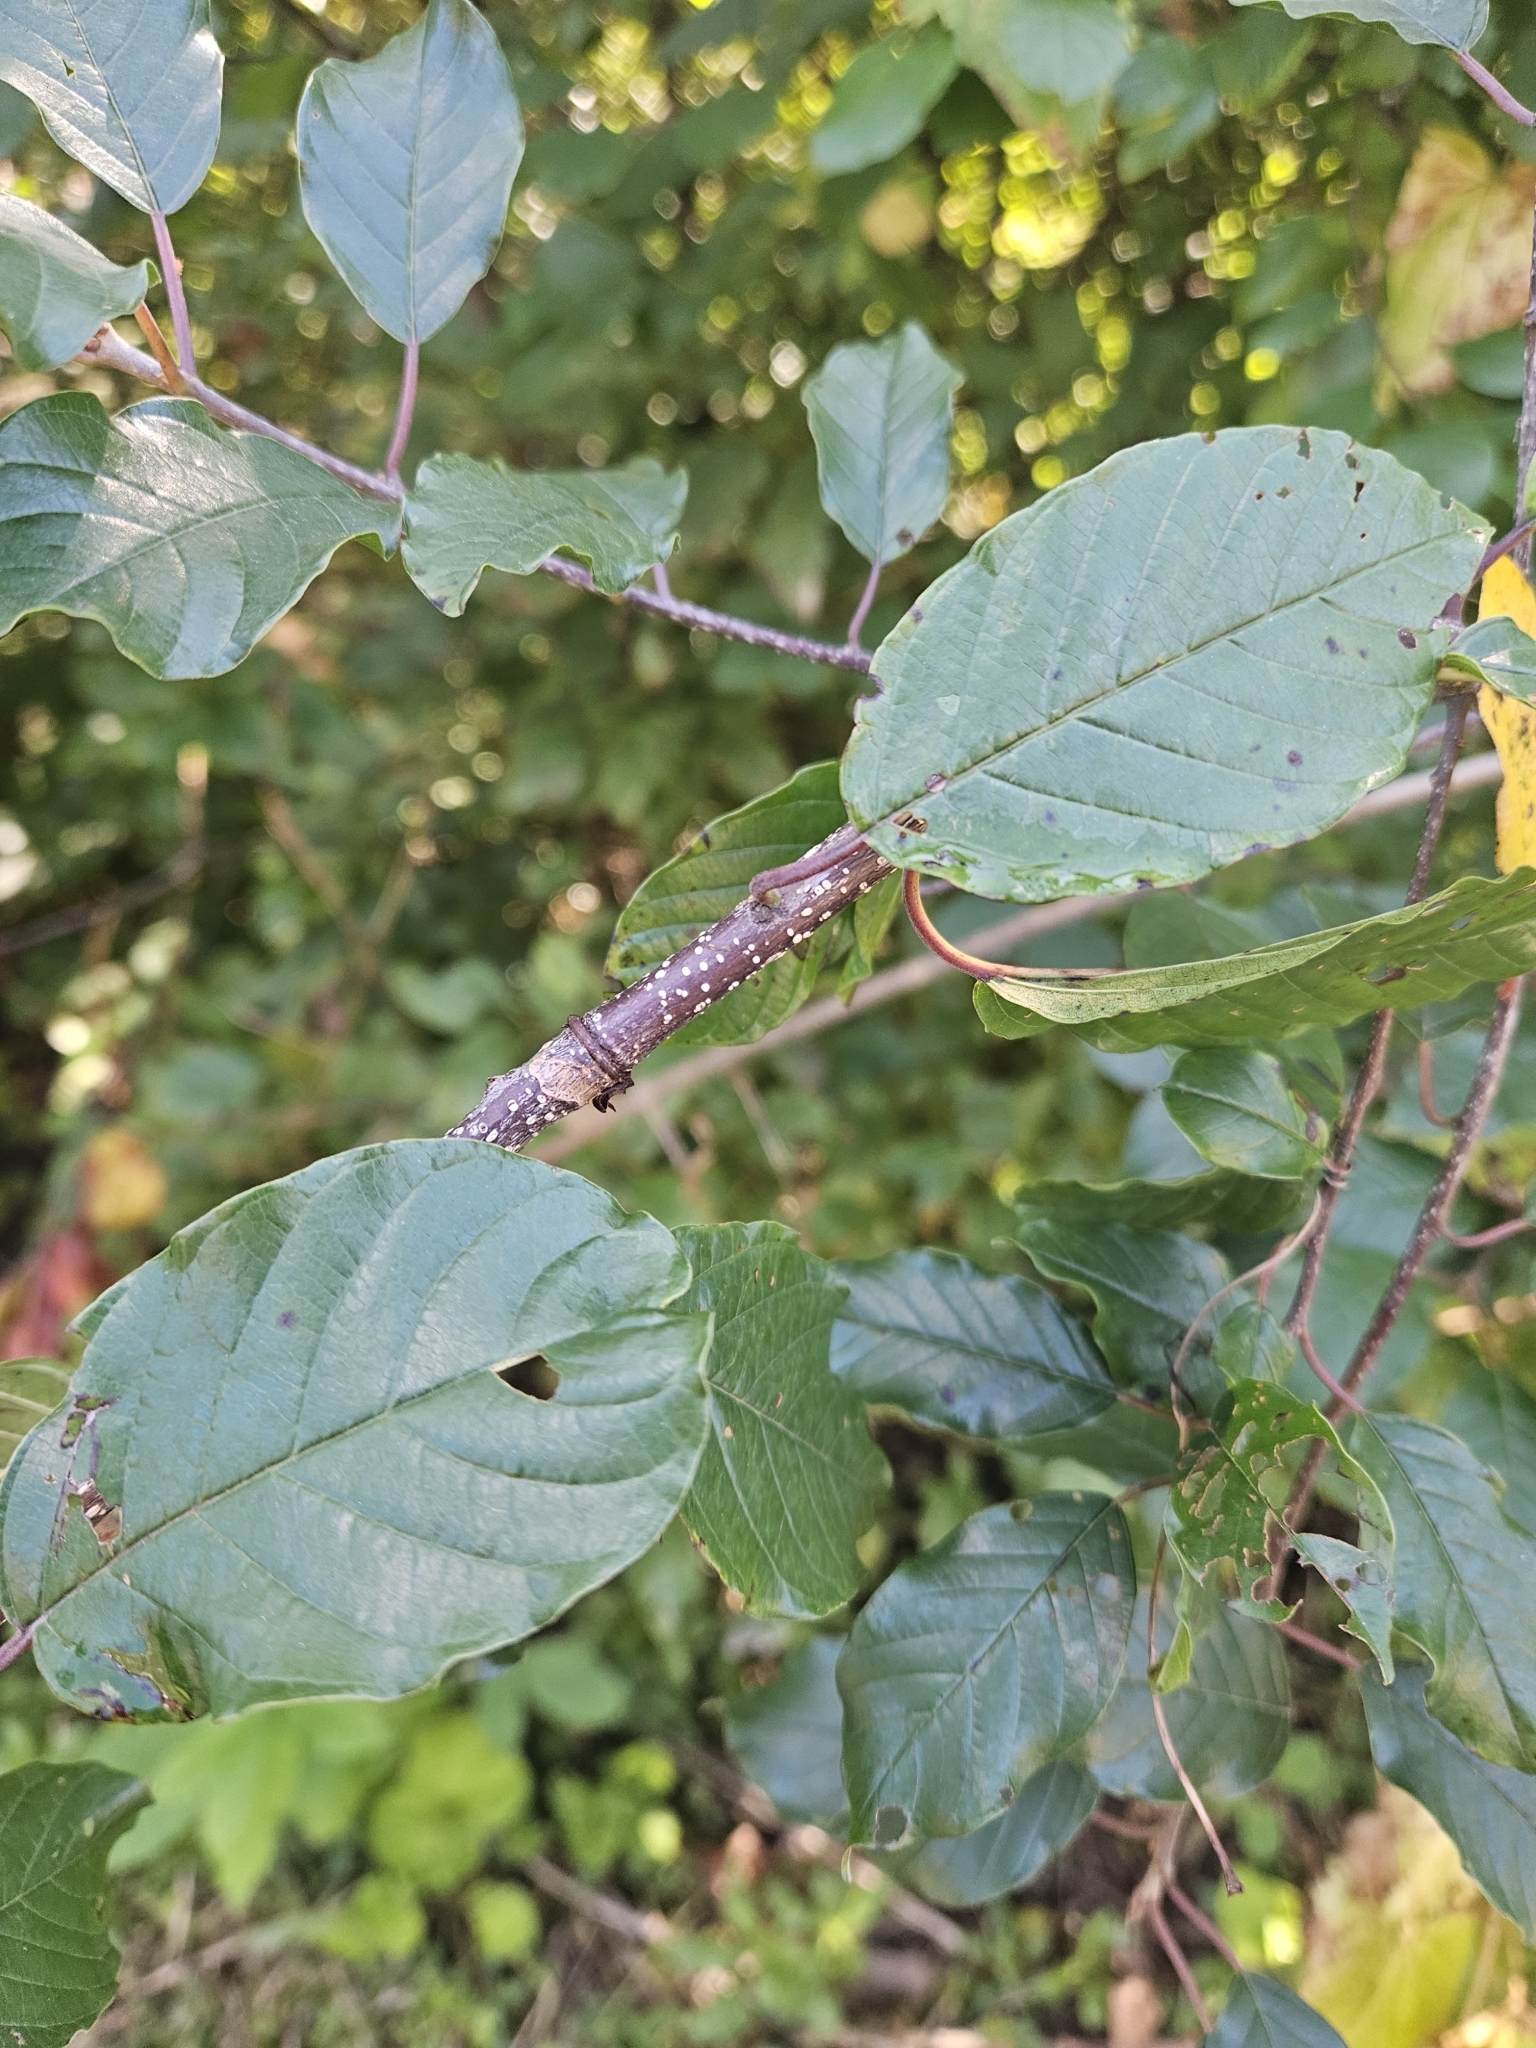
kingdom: Plantae
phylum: Tracheophyta
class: Magnoliopsida
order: Rosales
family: Rhamnaceae
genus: Frangula
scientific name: Frangula alnus
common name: Alder buckthorn
